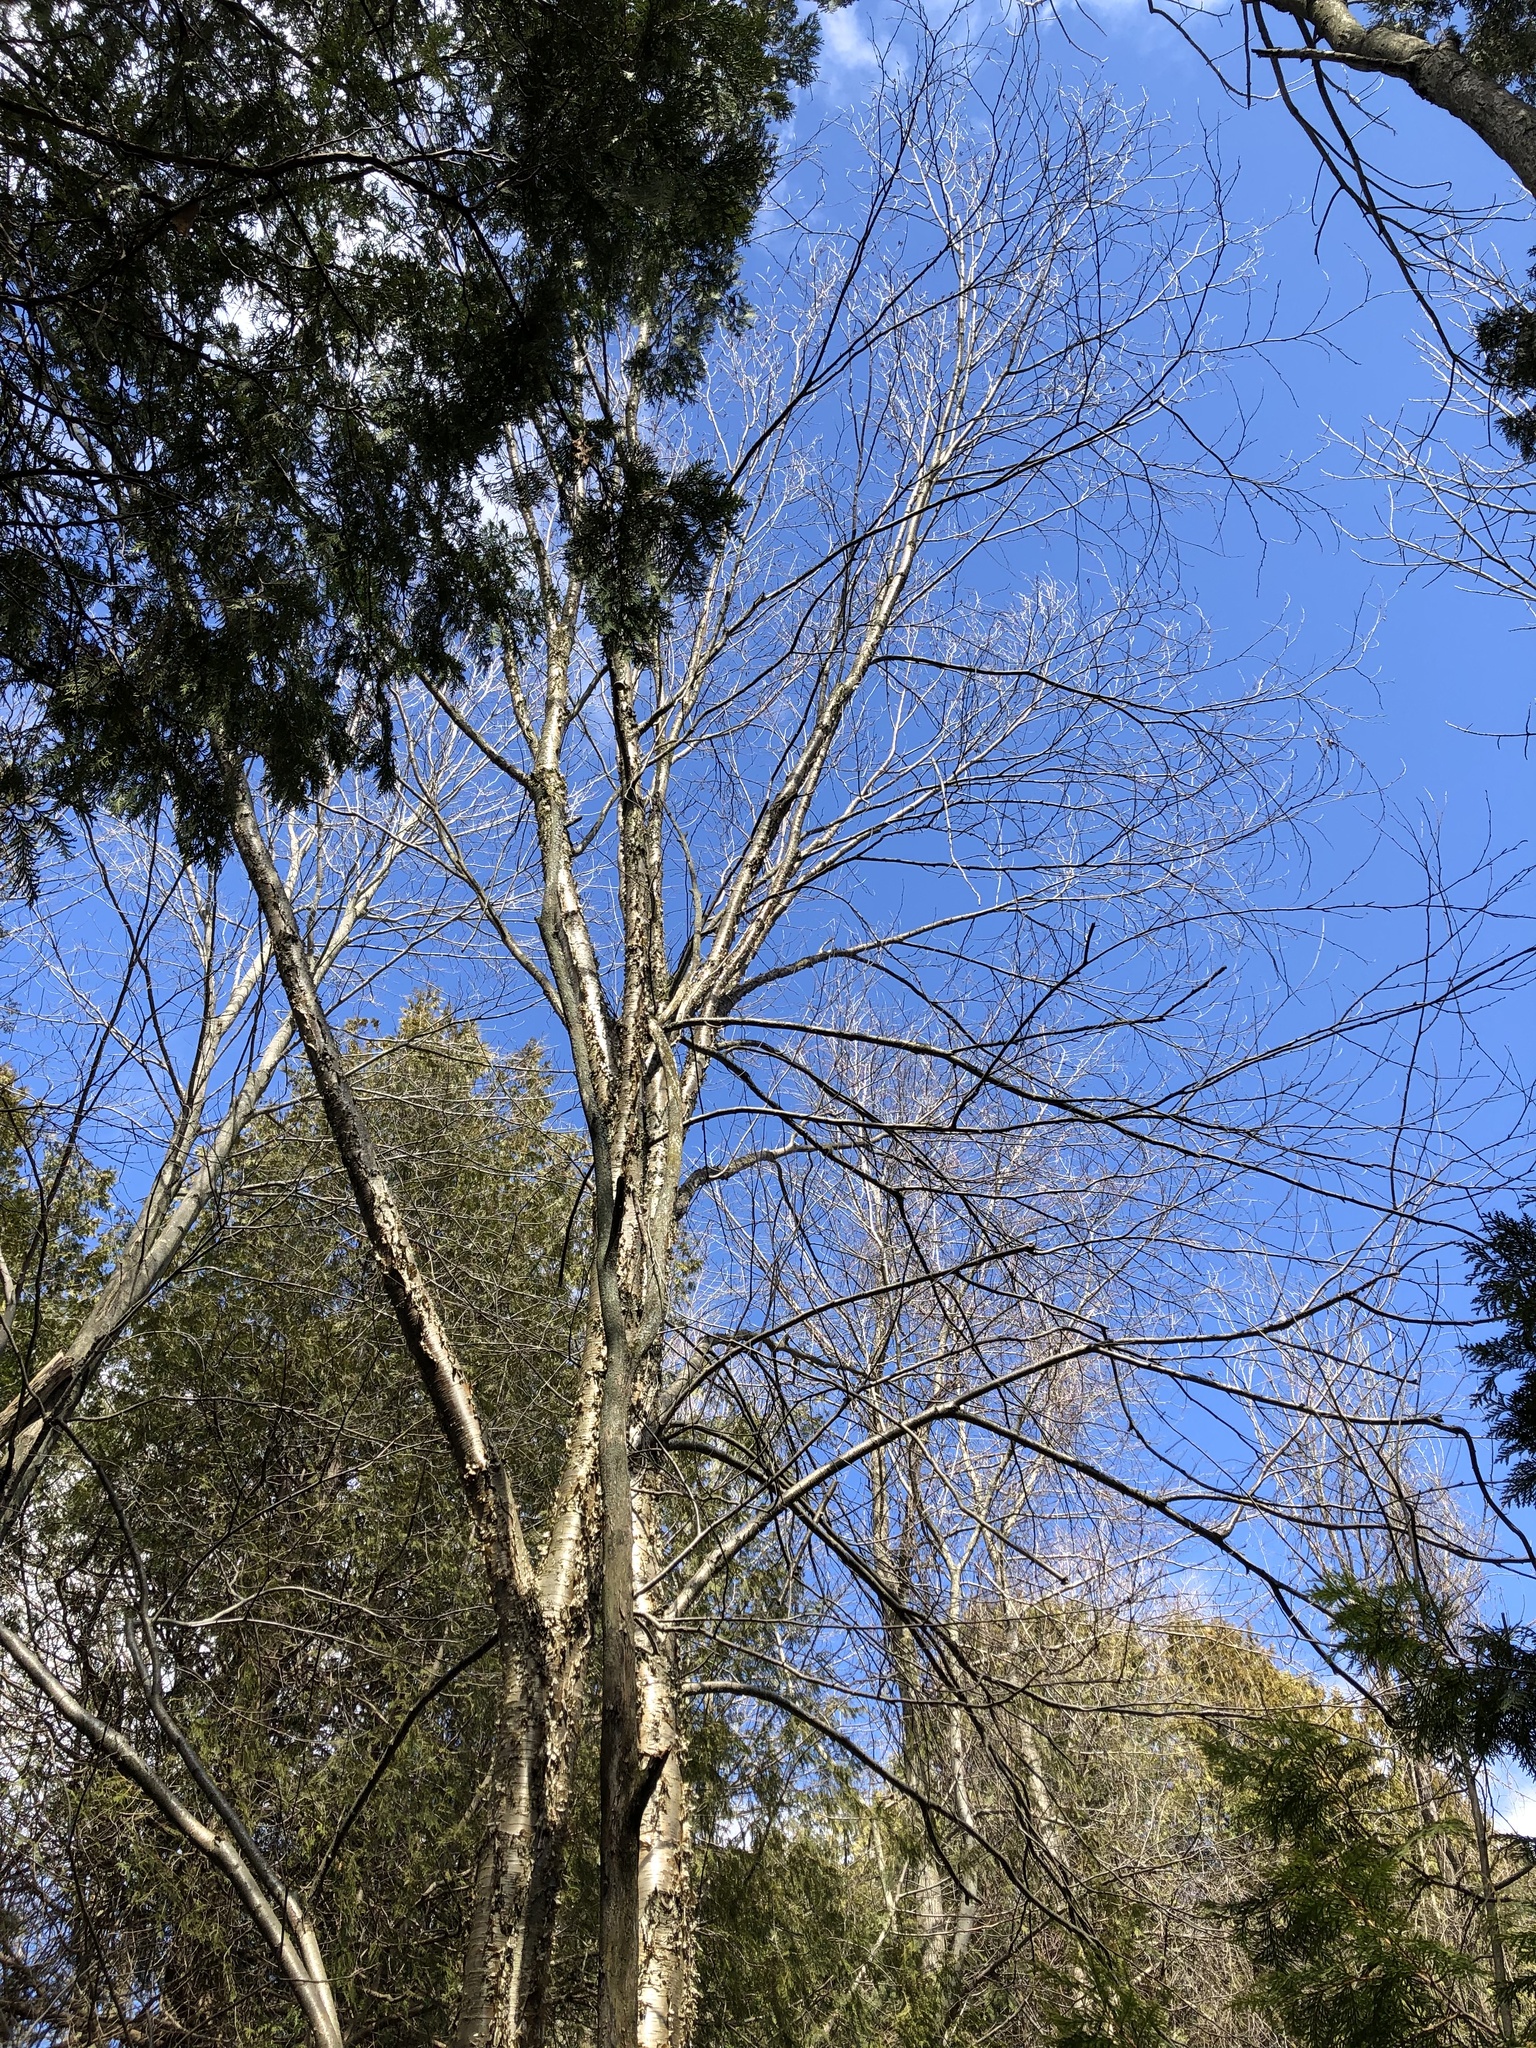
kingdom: Plantae
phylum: Tracheophyta
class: Magnoliopsida
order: Fagales
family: Betulaceae
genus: Betula
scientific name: Betula alleghaniensis
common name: Yellow birch
